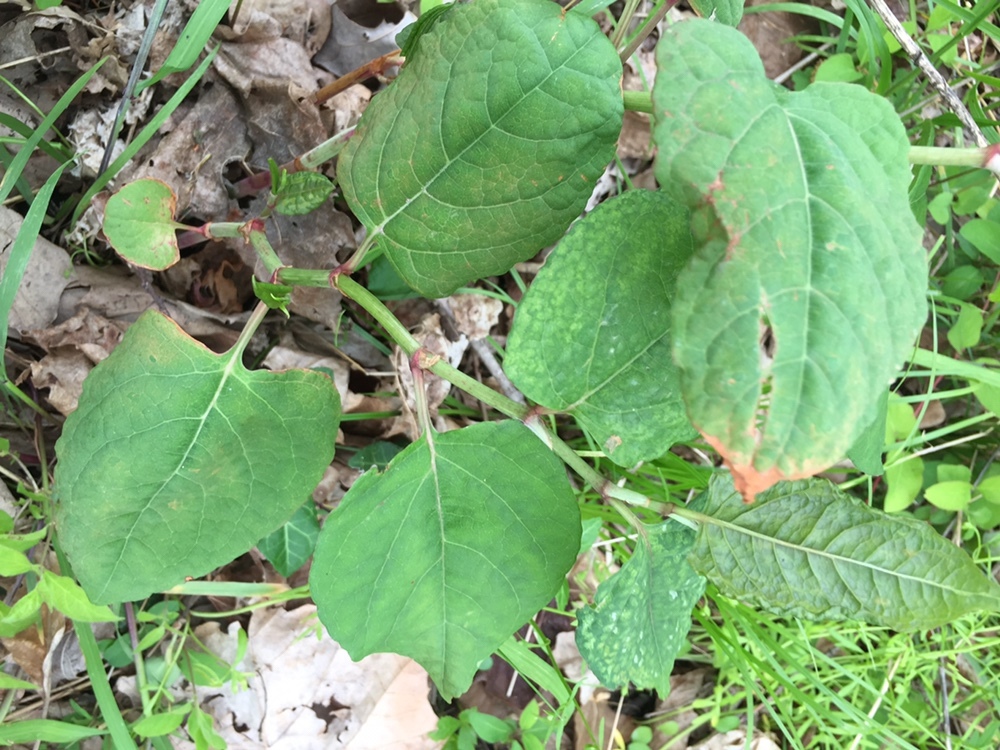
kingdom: Plantae
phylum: Tracheophyta
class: Magnoliopsida
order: Caryophyllales
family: Polygonaceae
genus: Reynoutria
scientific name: Reynoutria japonica
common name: Japanese knotweed
